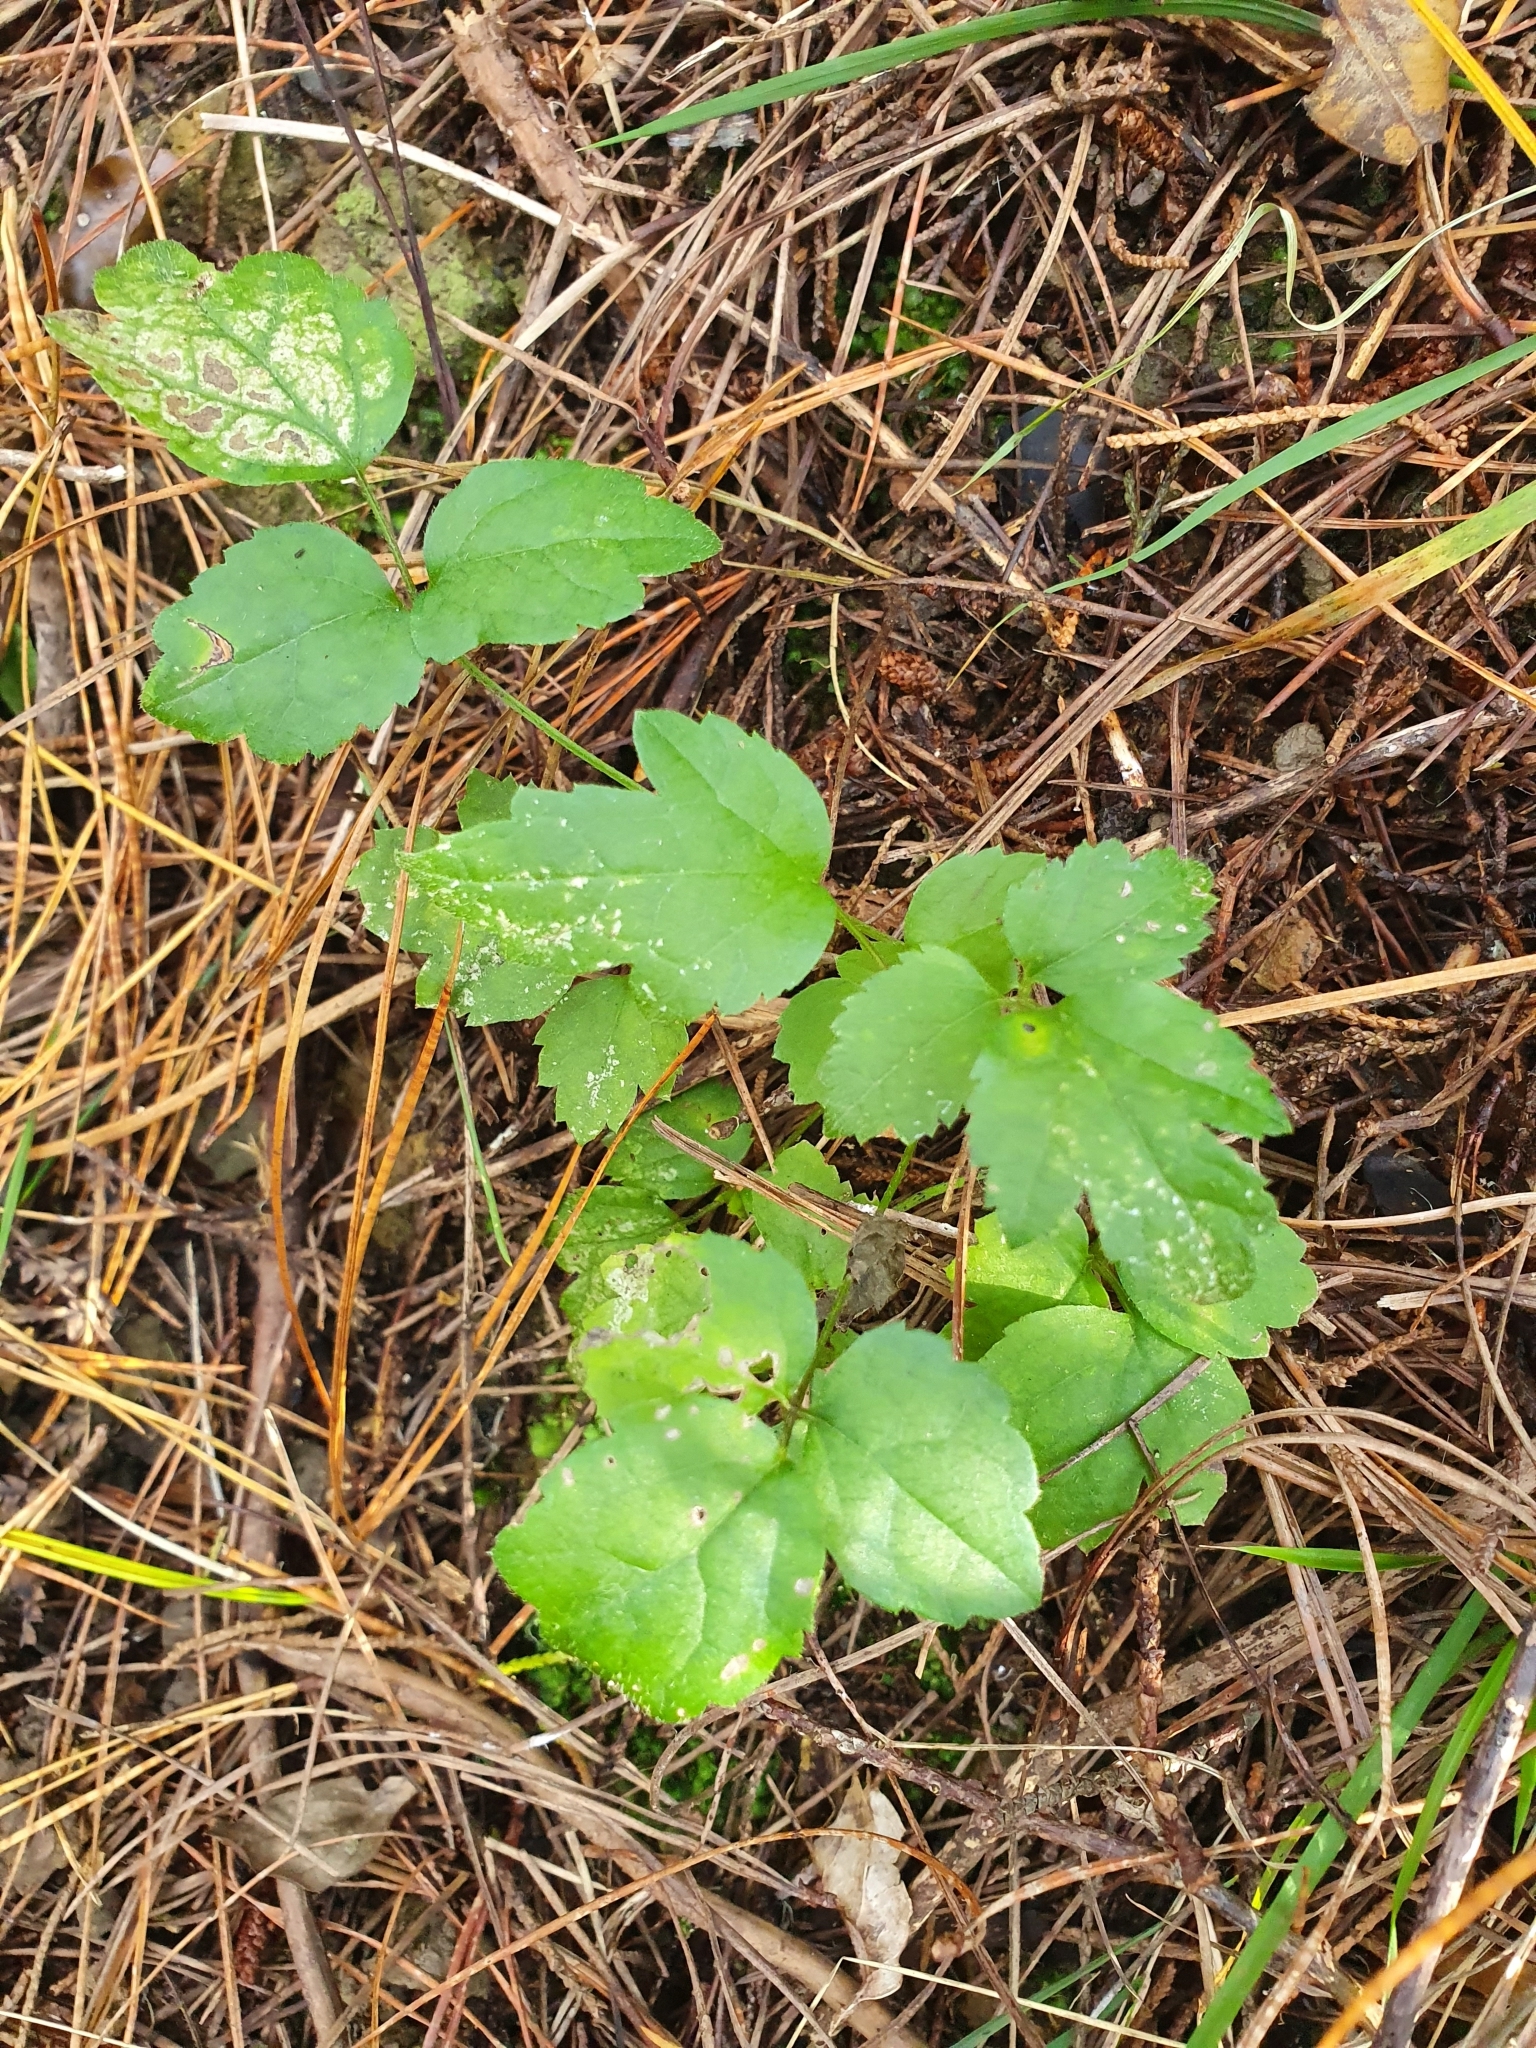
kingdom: Plantae
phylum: Tracheophyta
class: Magnoliopsida
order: Ranunculales
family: Ranunculaceae
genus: Clematis
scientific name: Clematis vitalba
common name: Evergreen clematis
